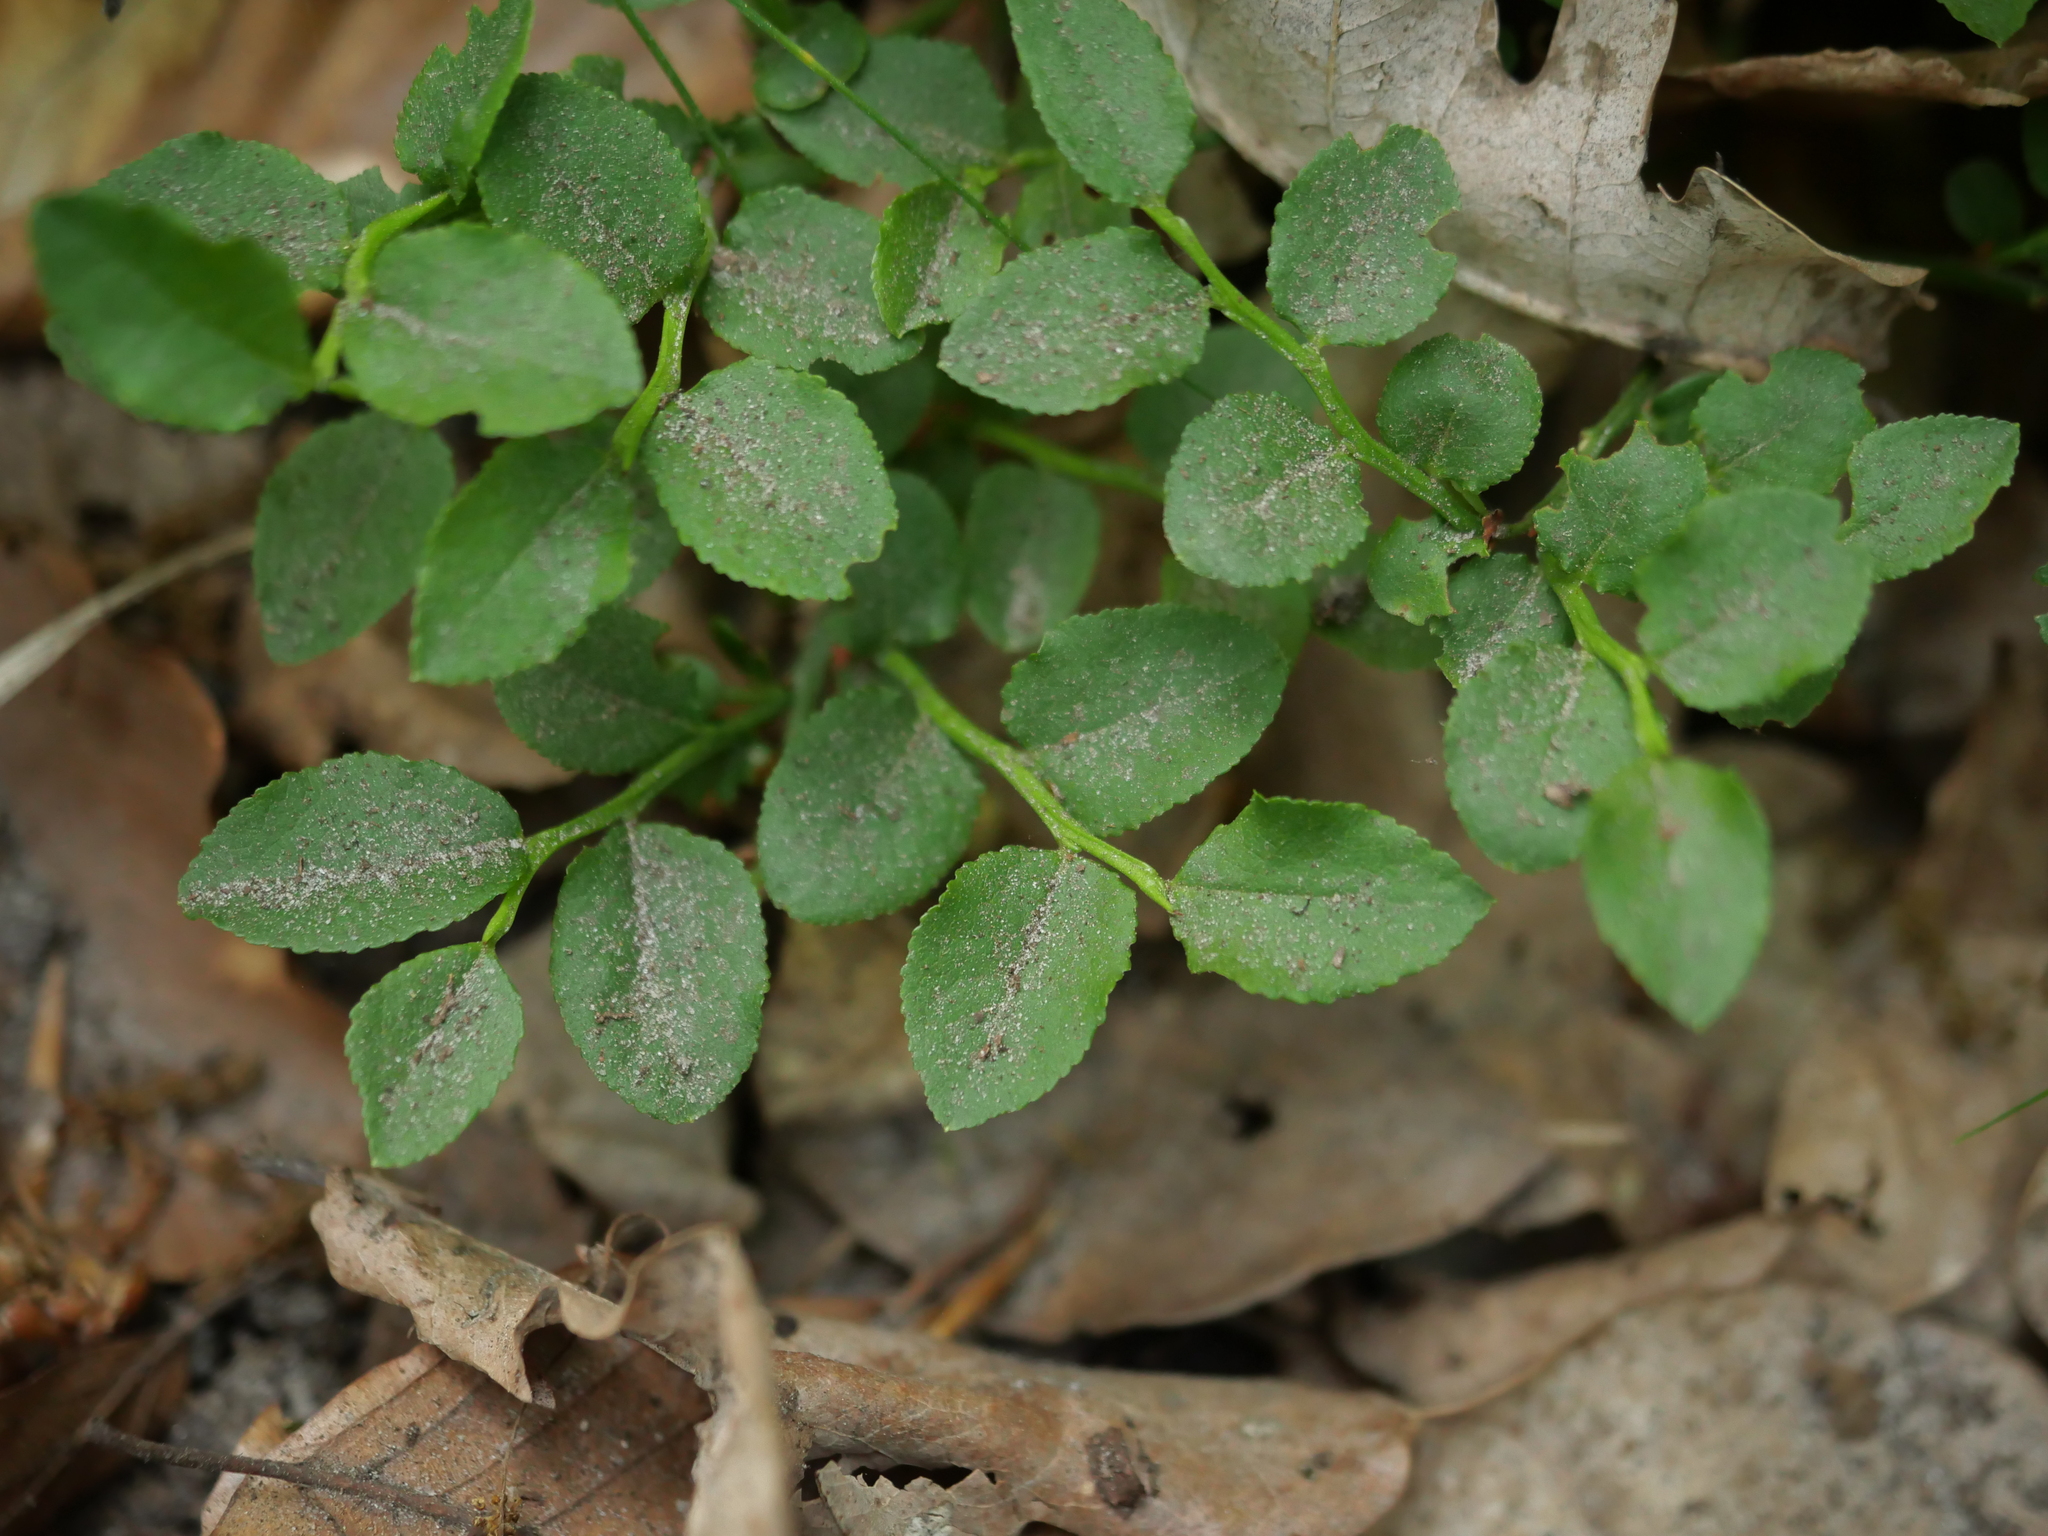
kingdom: Plantae
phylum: Tracheophyta
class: Magnoliopsida
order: Ericales
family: Ericaceae
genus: Vaccinium
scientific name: Vaccinium myrtillus
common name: Bilberry
